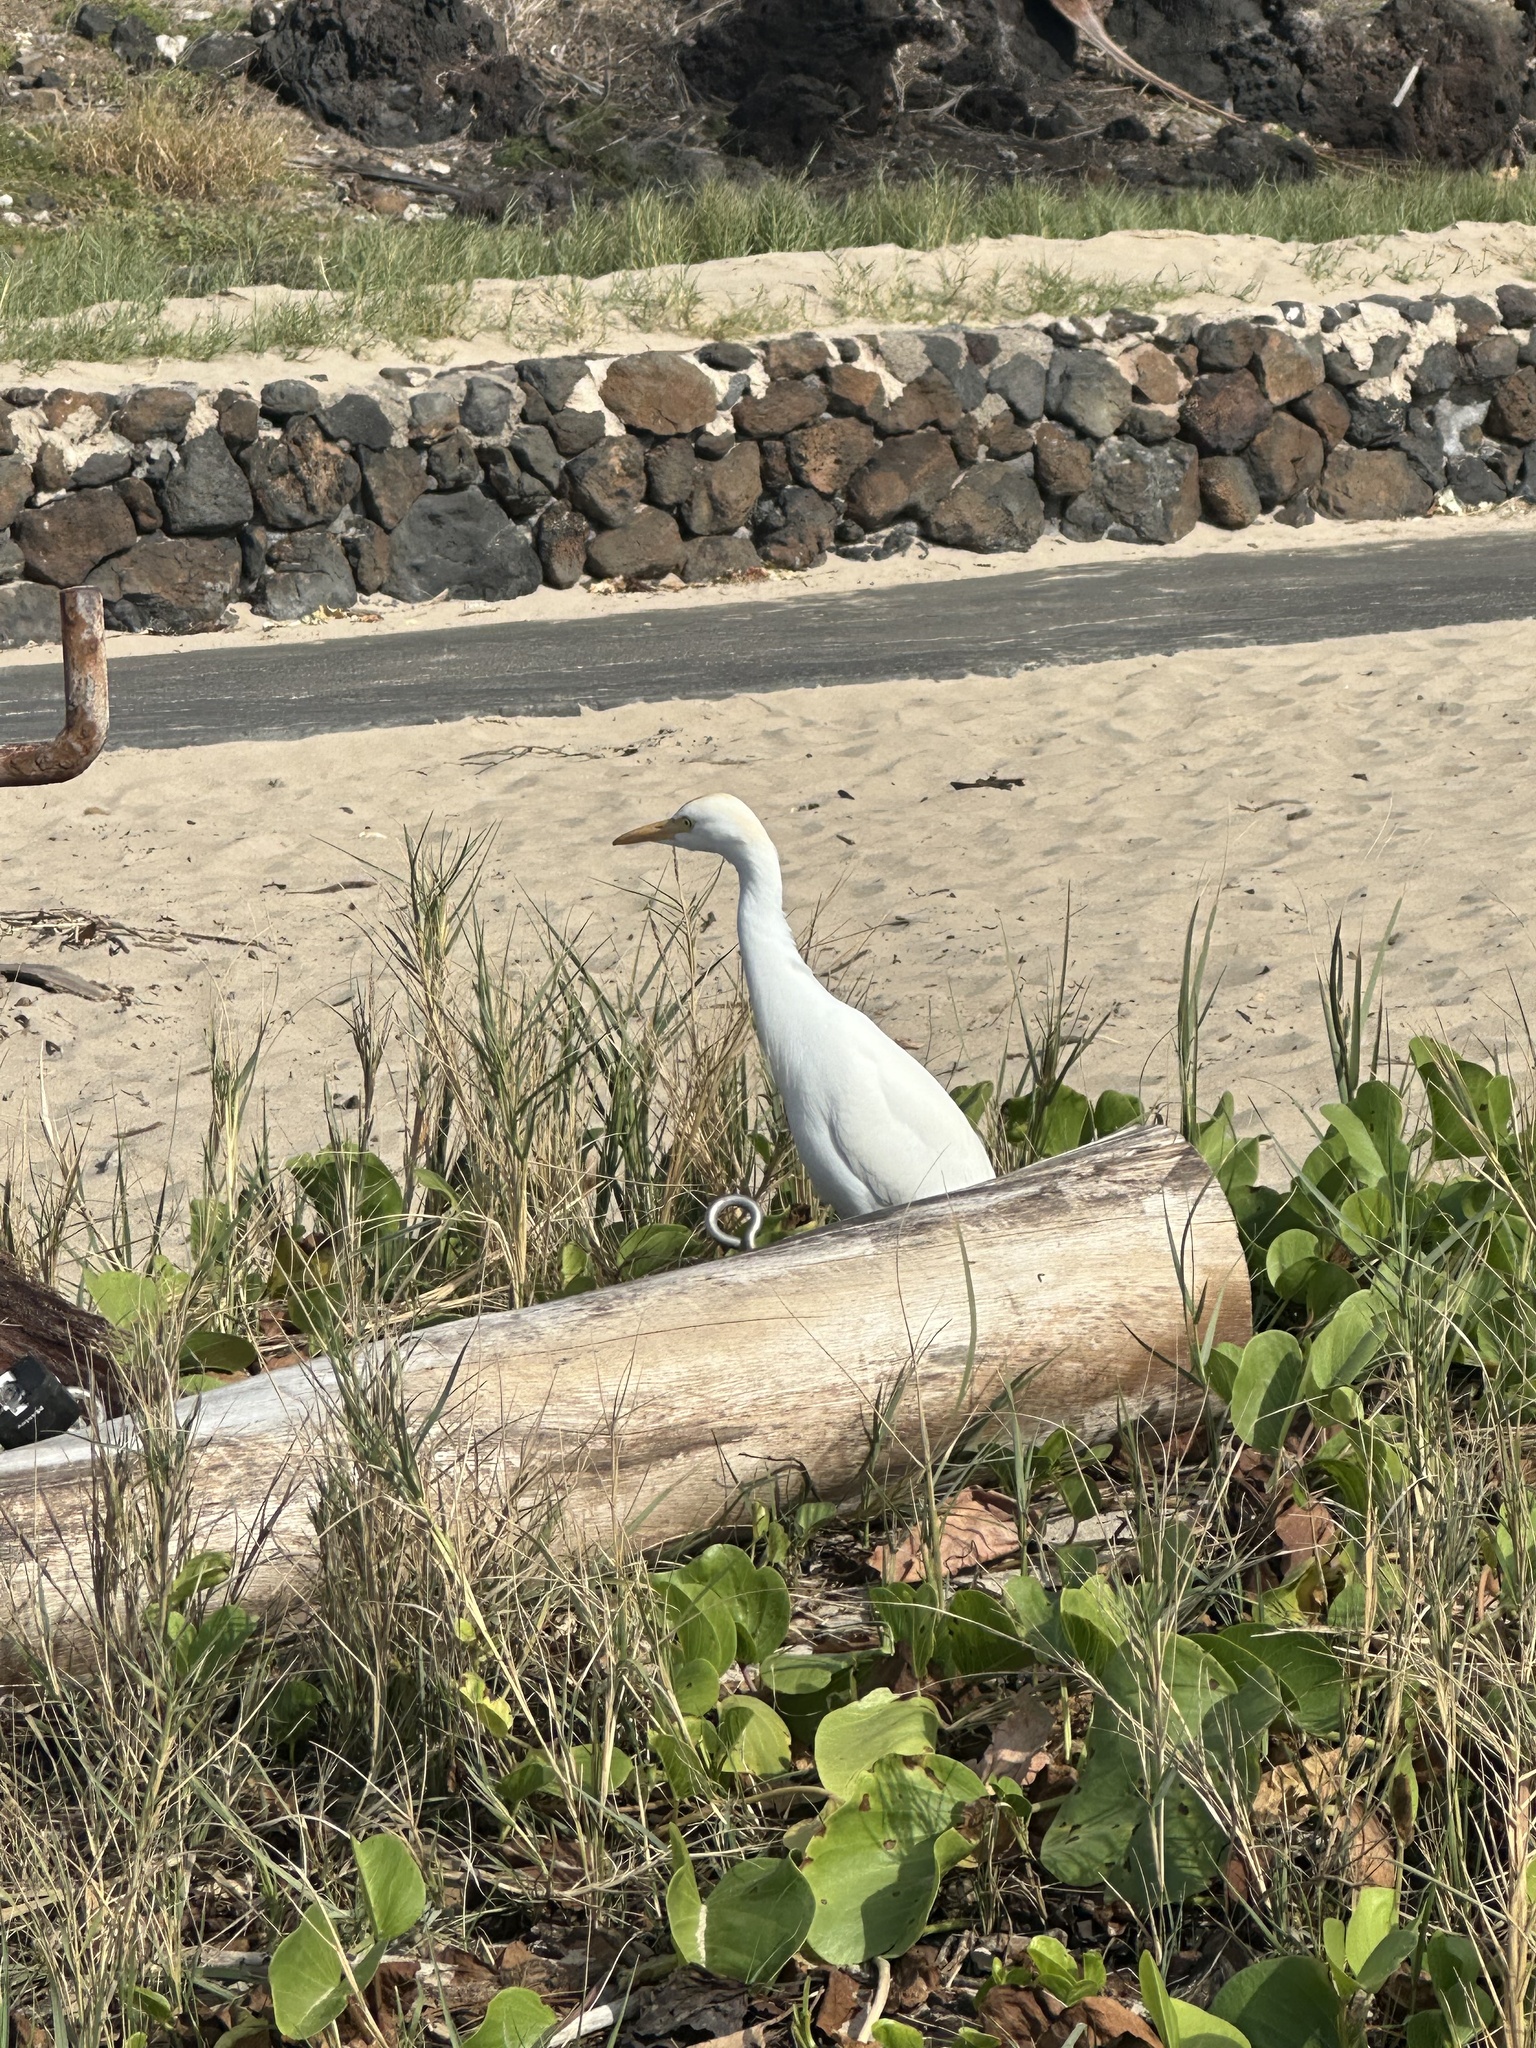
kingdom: Animalia
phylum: Chordata
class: Aves
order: Pelecaniformes
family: Ardeidae
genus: Bubulcus
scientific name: Bubulcus ibis
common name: Cattle egret
